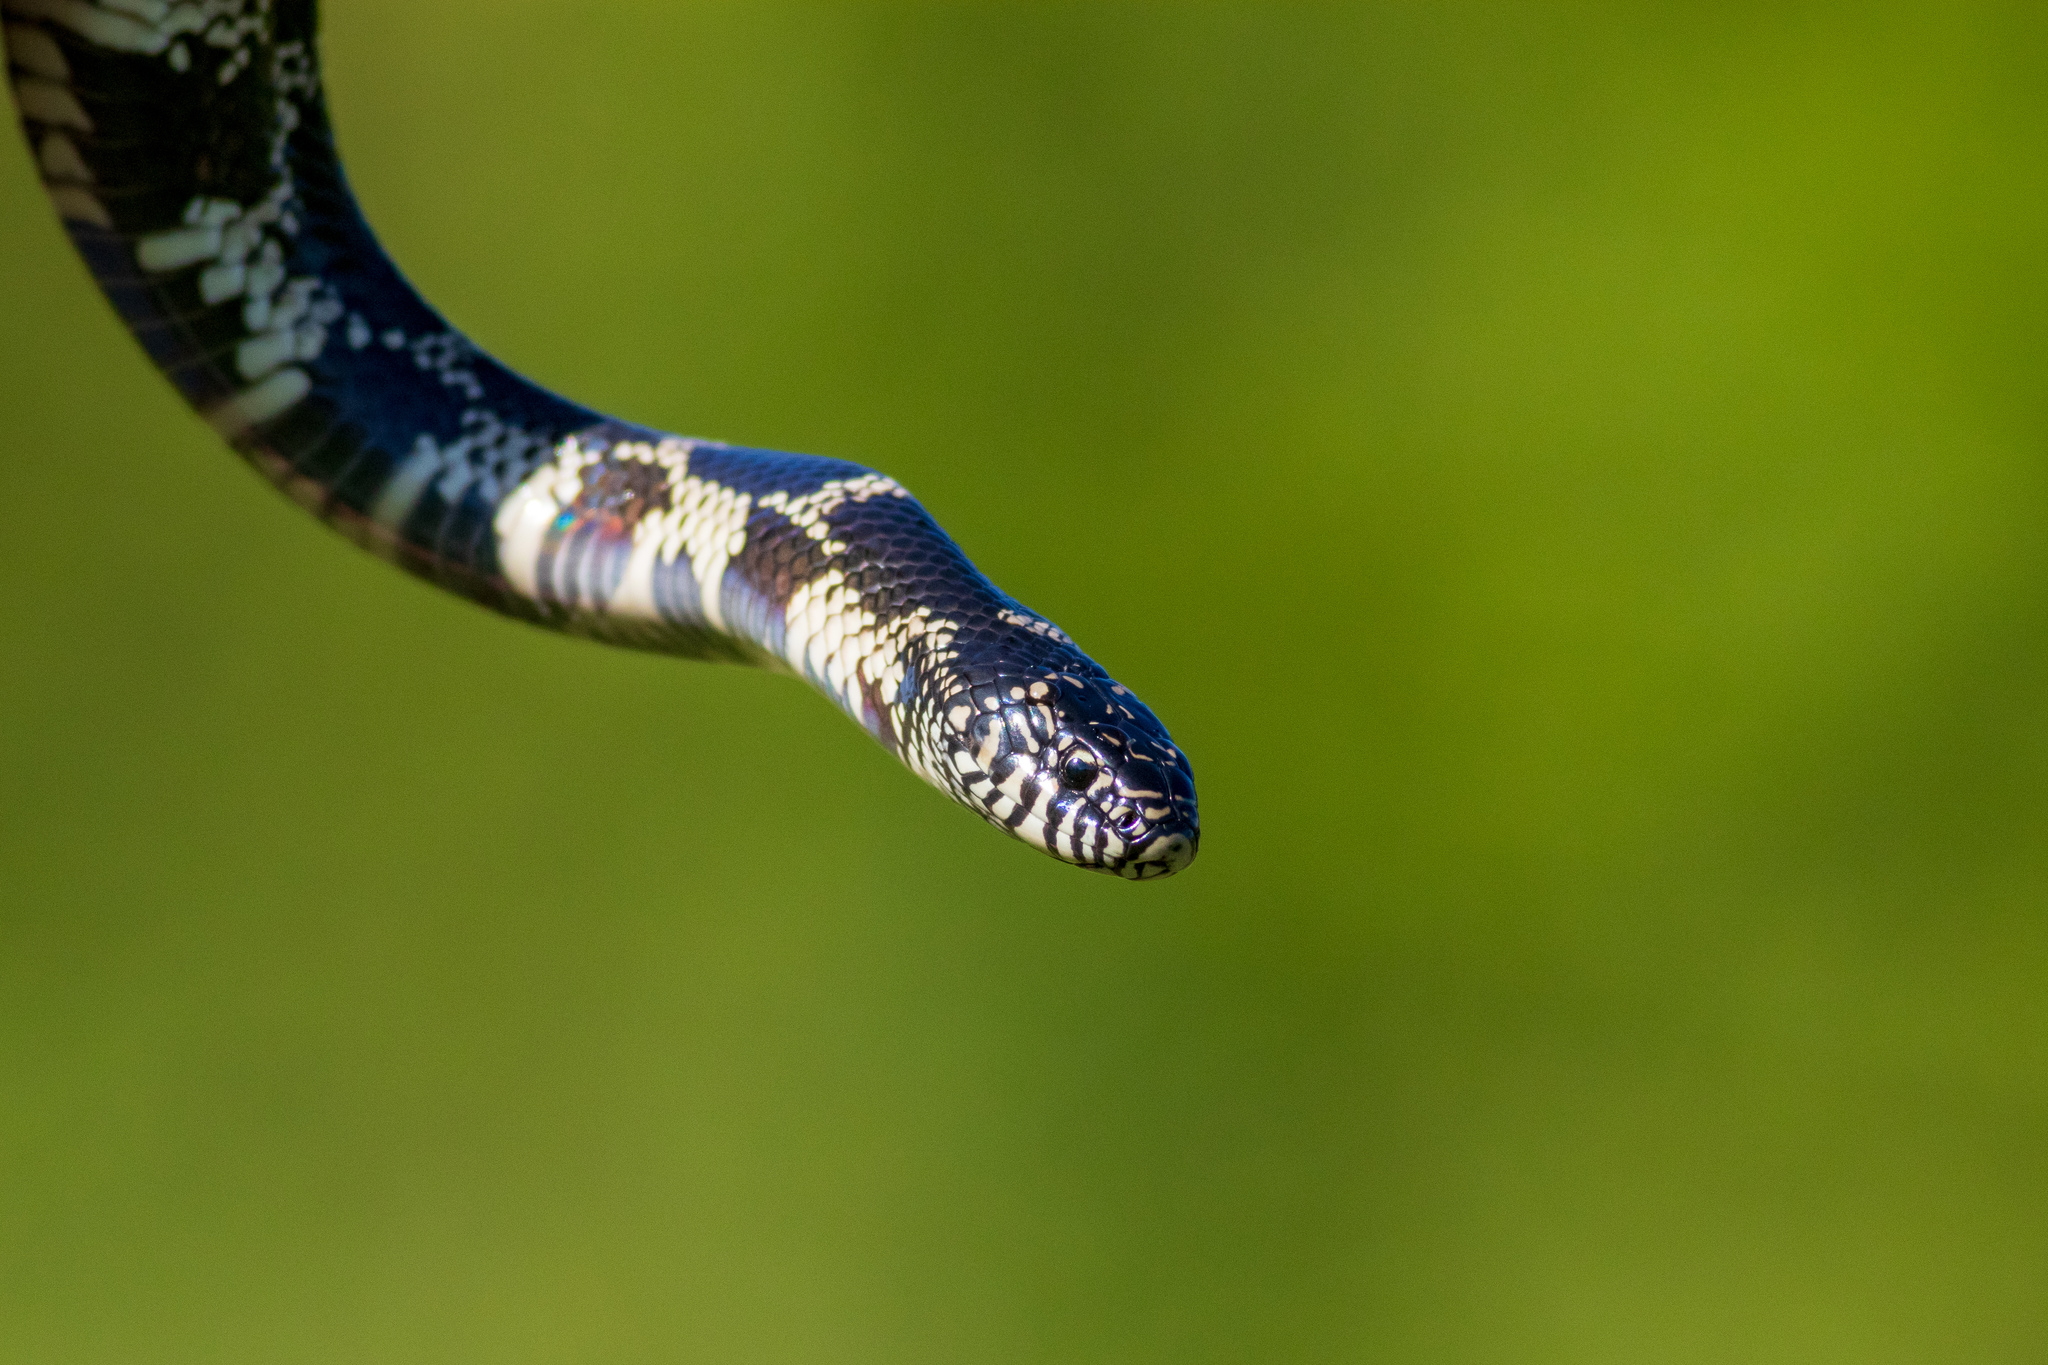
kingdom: Animalia
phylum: Chordata
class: Squamata
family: Colubridae
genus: Lampropeltis
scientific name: Lampropeltis getula
